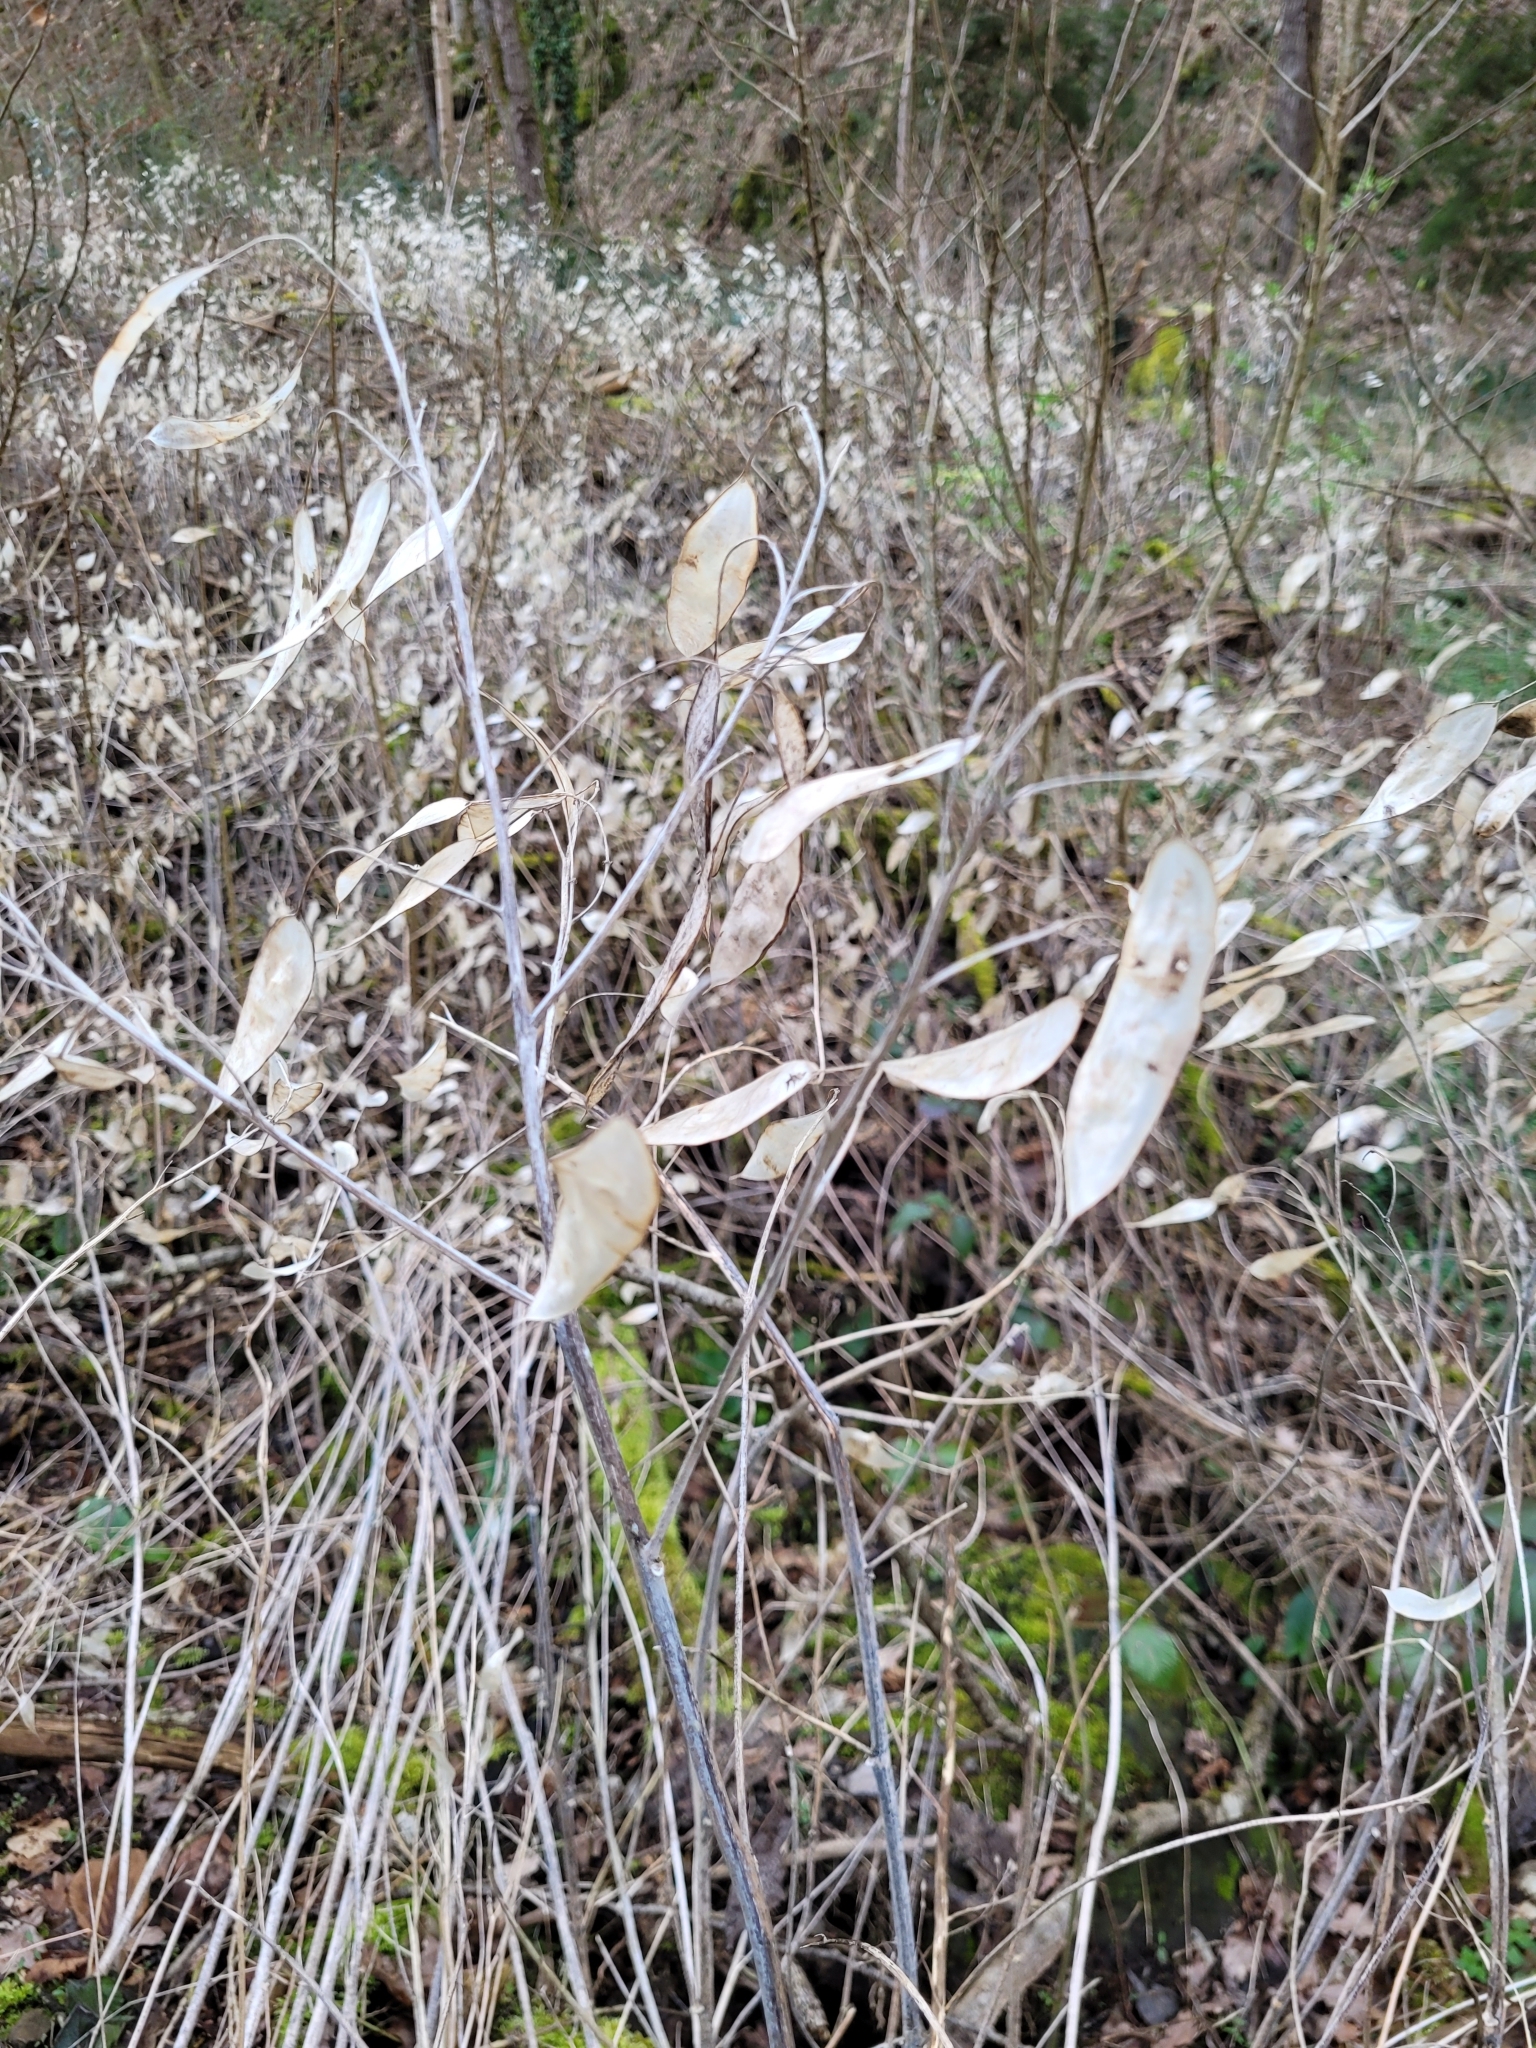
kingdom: Plantae
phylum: Tracheophyta
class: Magnoliopsida
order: Brassicales
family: Brassicaceae
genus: Lunaria
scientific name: Lunaria rediviva
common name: Perennial honesty
